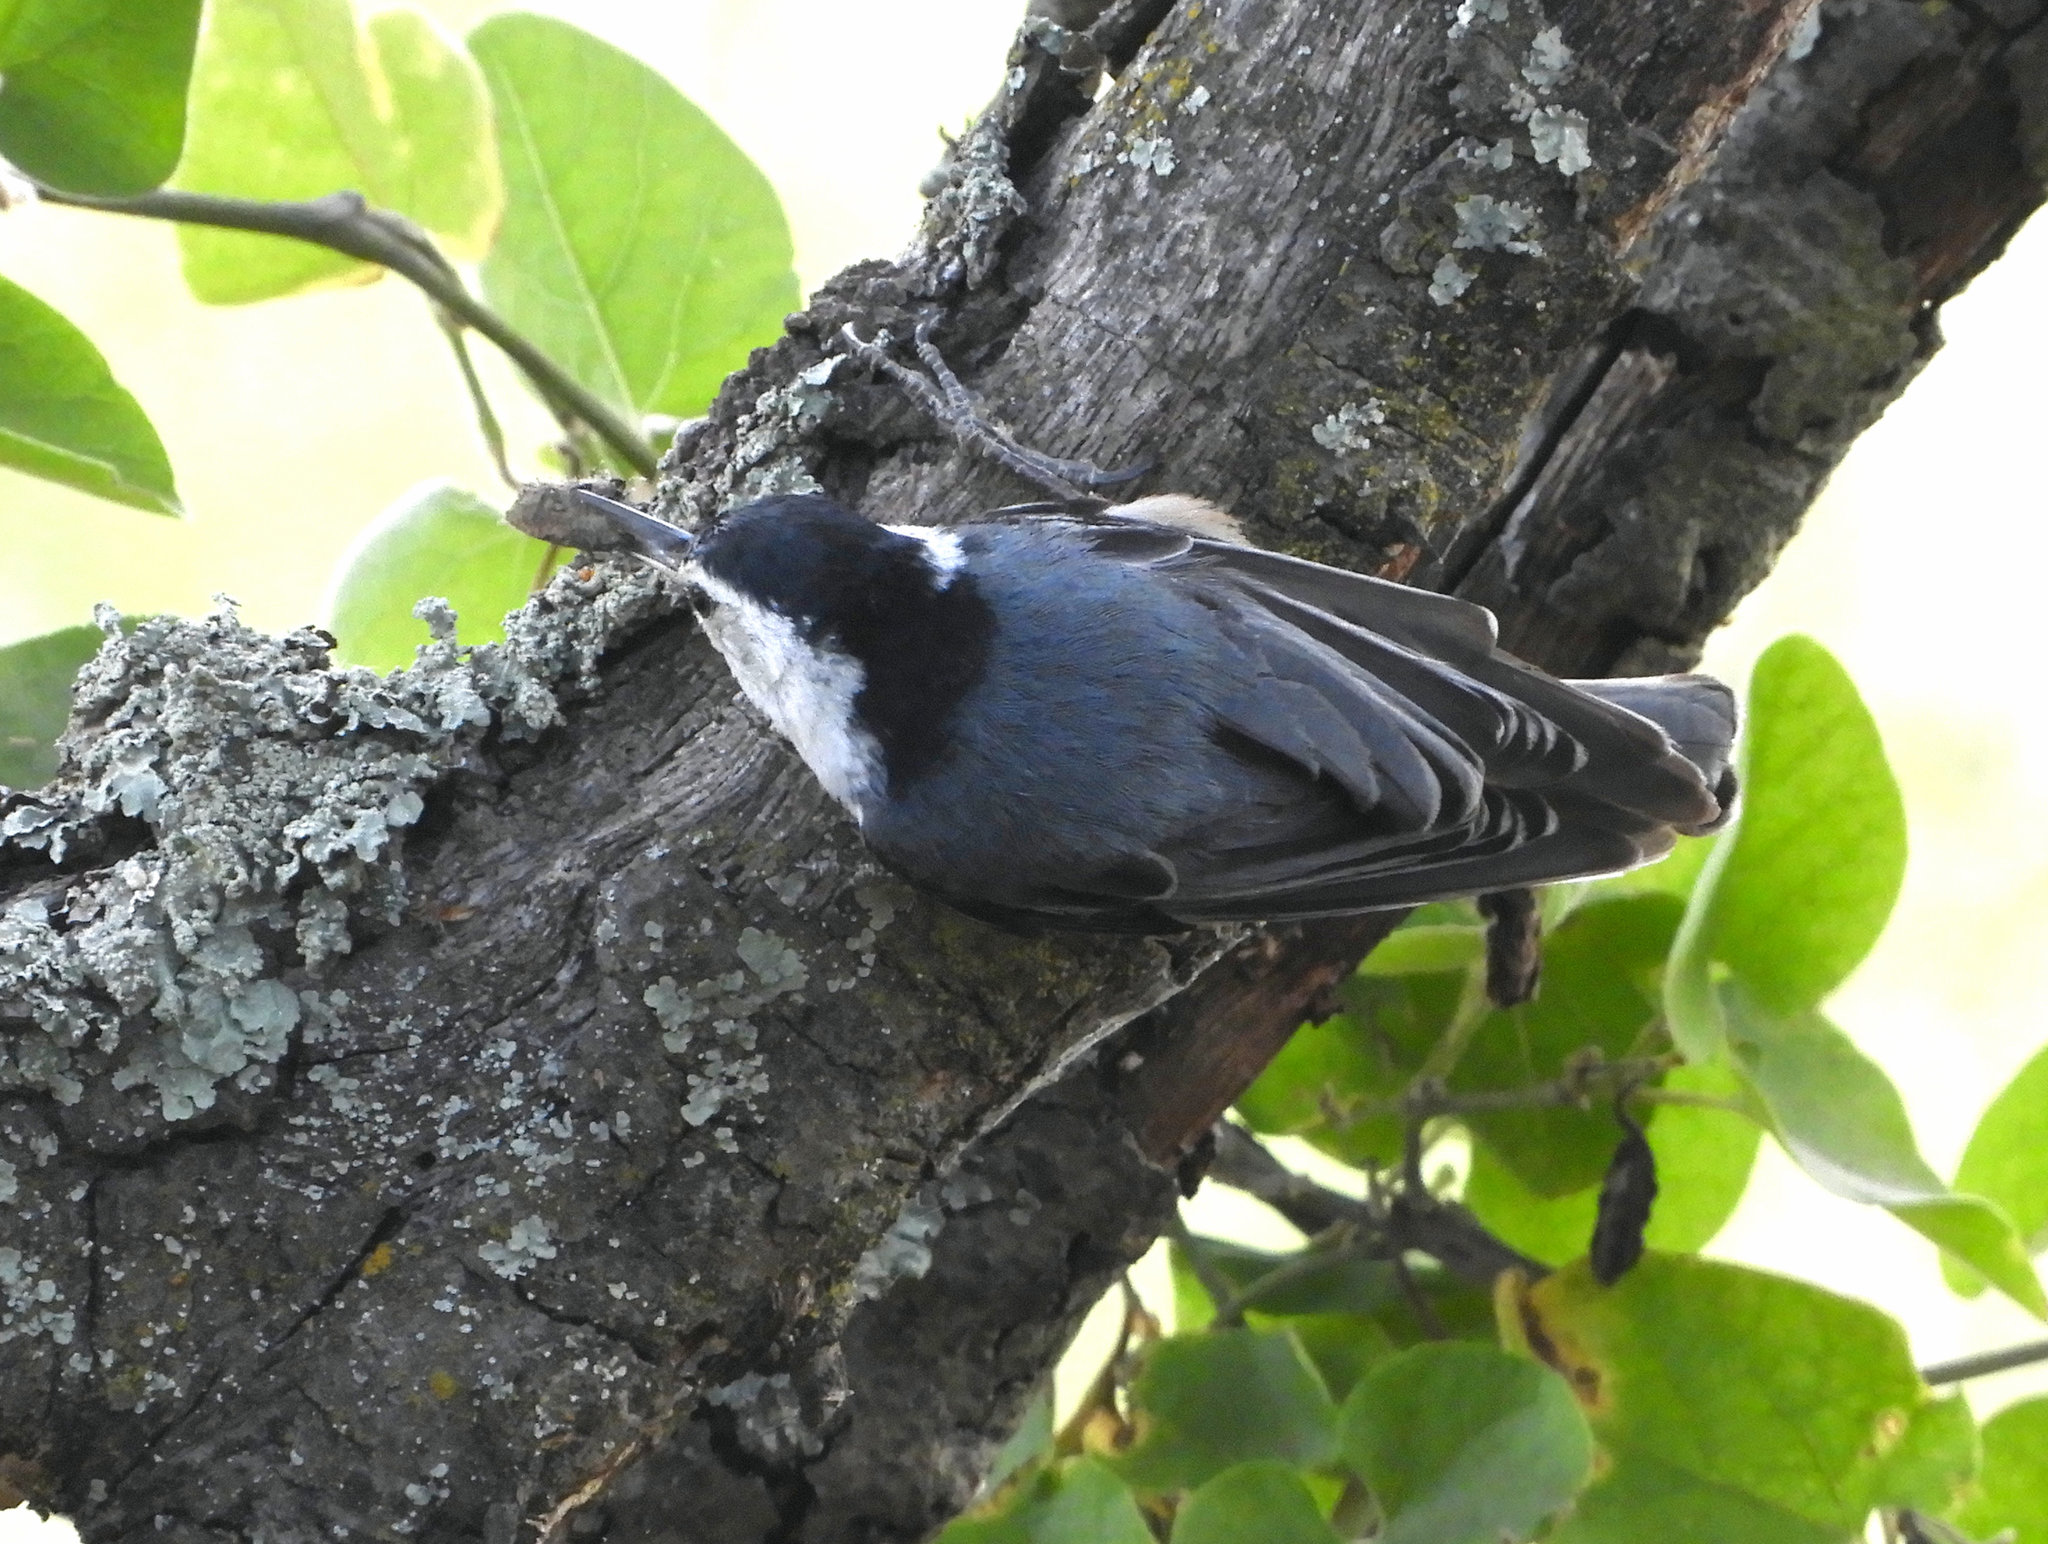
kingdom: Animalia
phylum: Chordata
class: Aves
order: Passeriformes
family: Sittidae
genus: Sitta
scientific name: Sitta carolinensis
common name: White-breasted nuthatch
